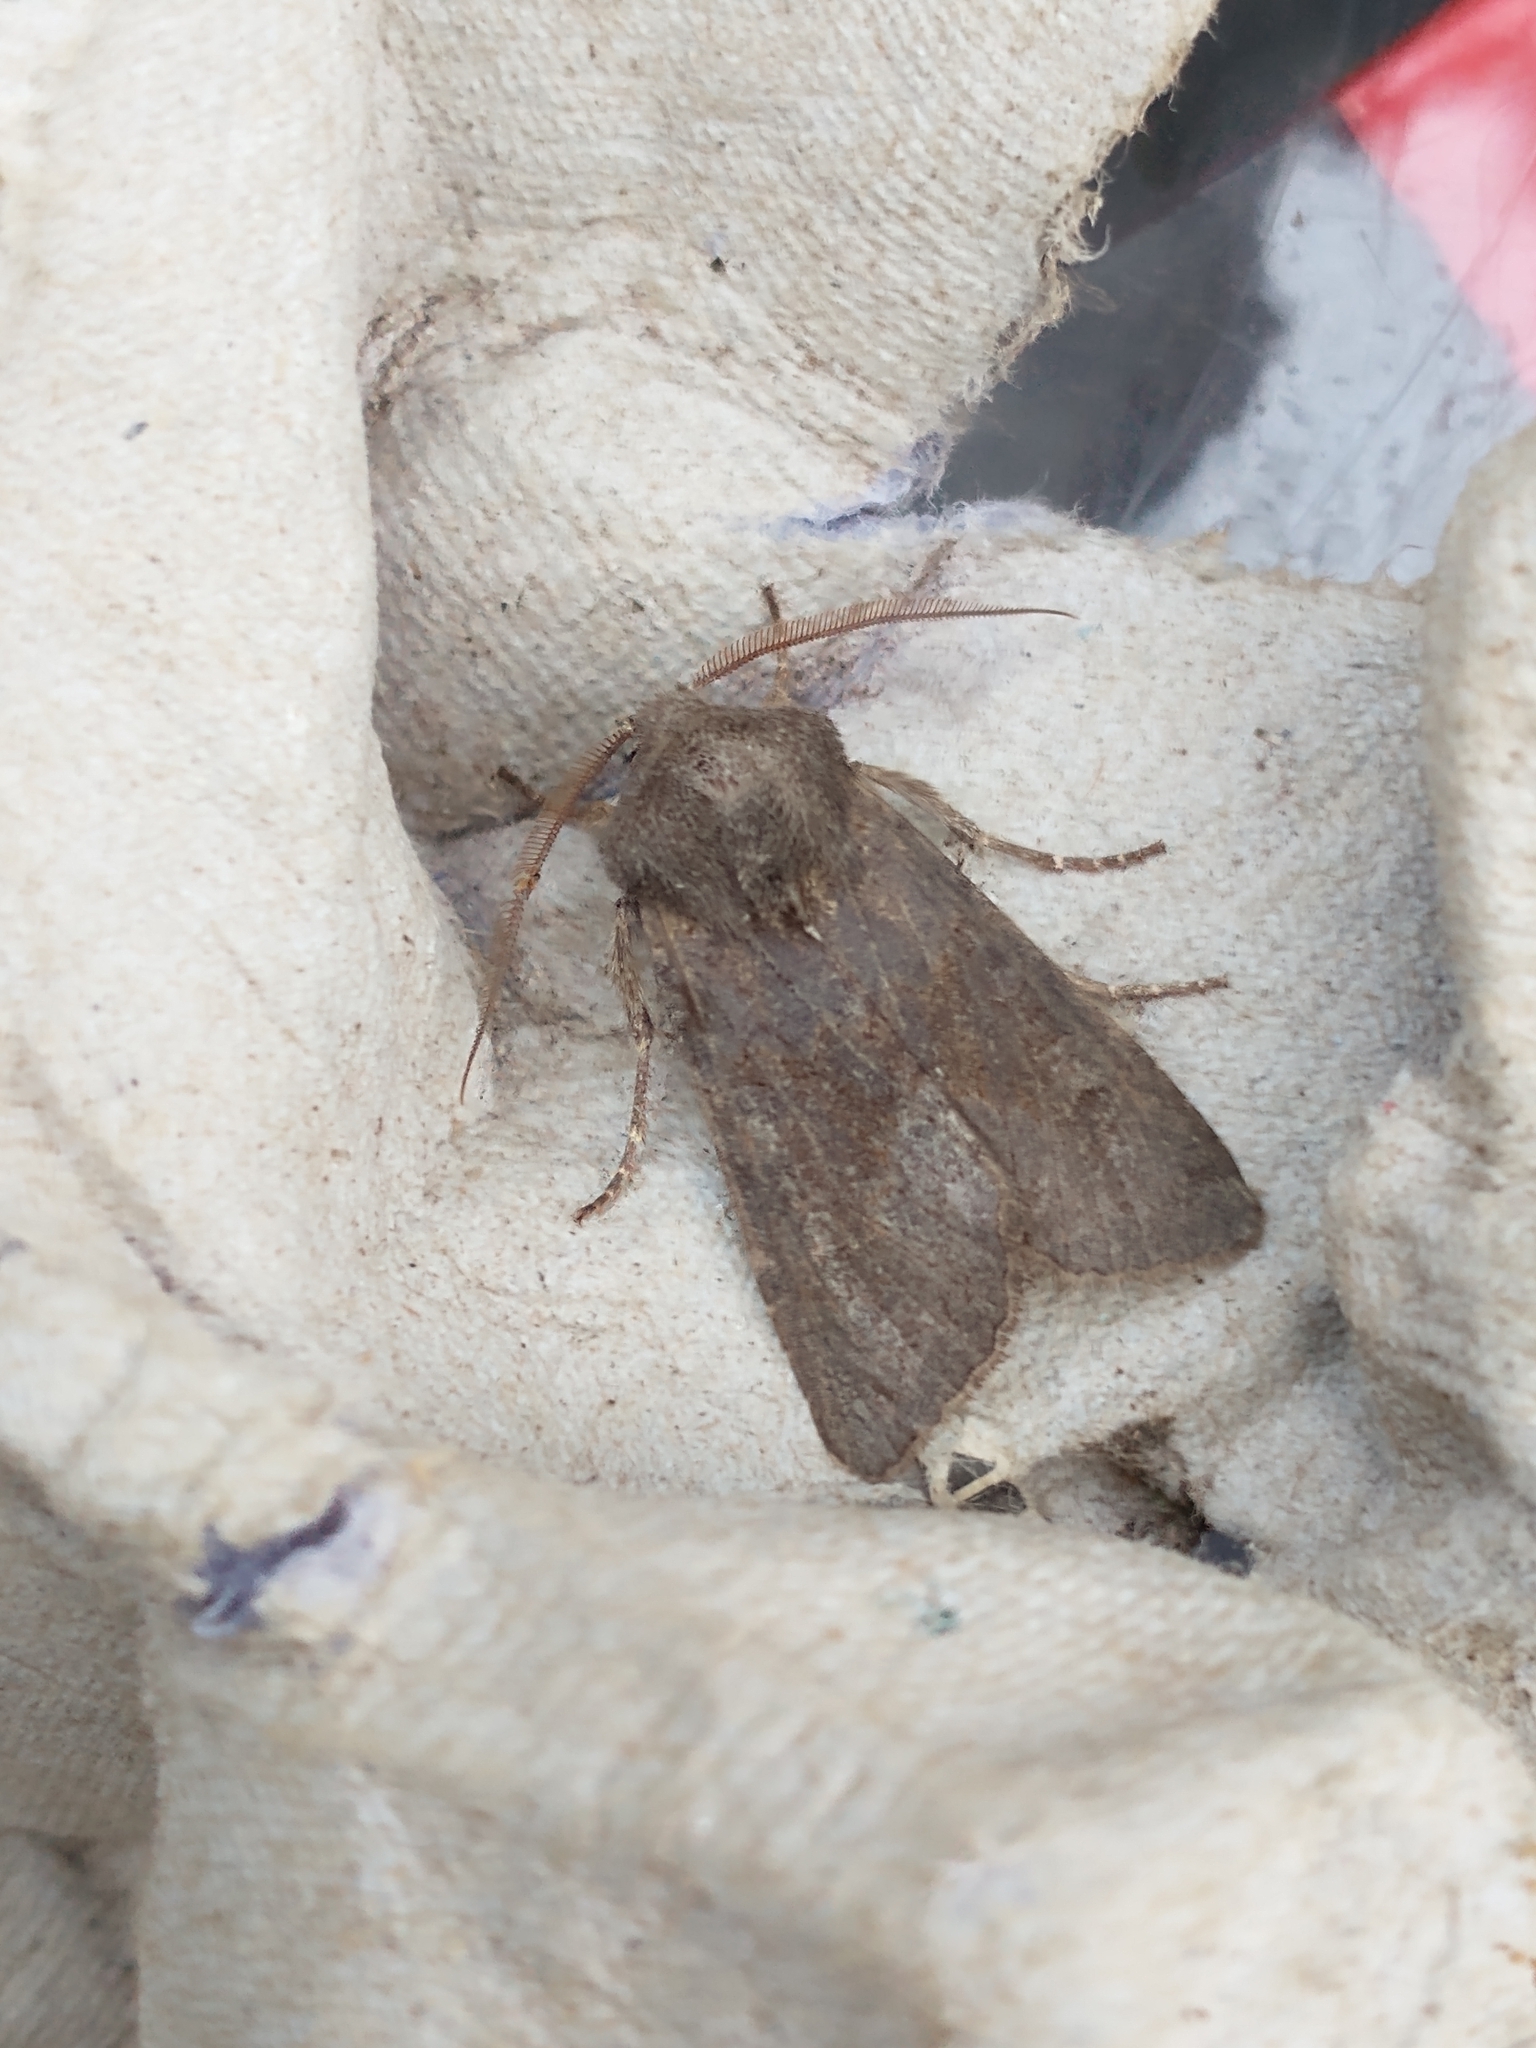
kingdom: Animalia
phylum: Arthropoda
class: Insecta
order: Lepidoptera
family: Noctuidae
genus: Aporophyla
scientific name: Aporophyla lueneburgensis
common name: Northern deep-brown dart
